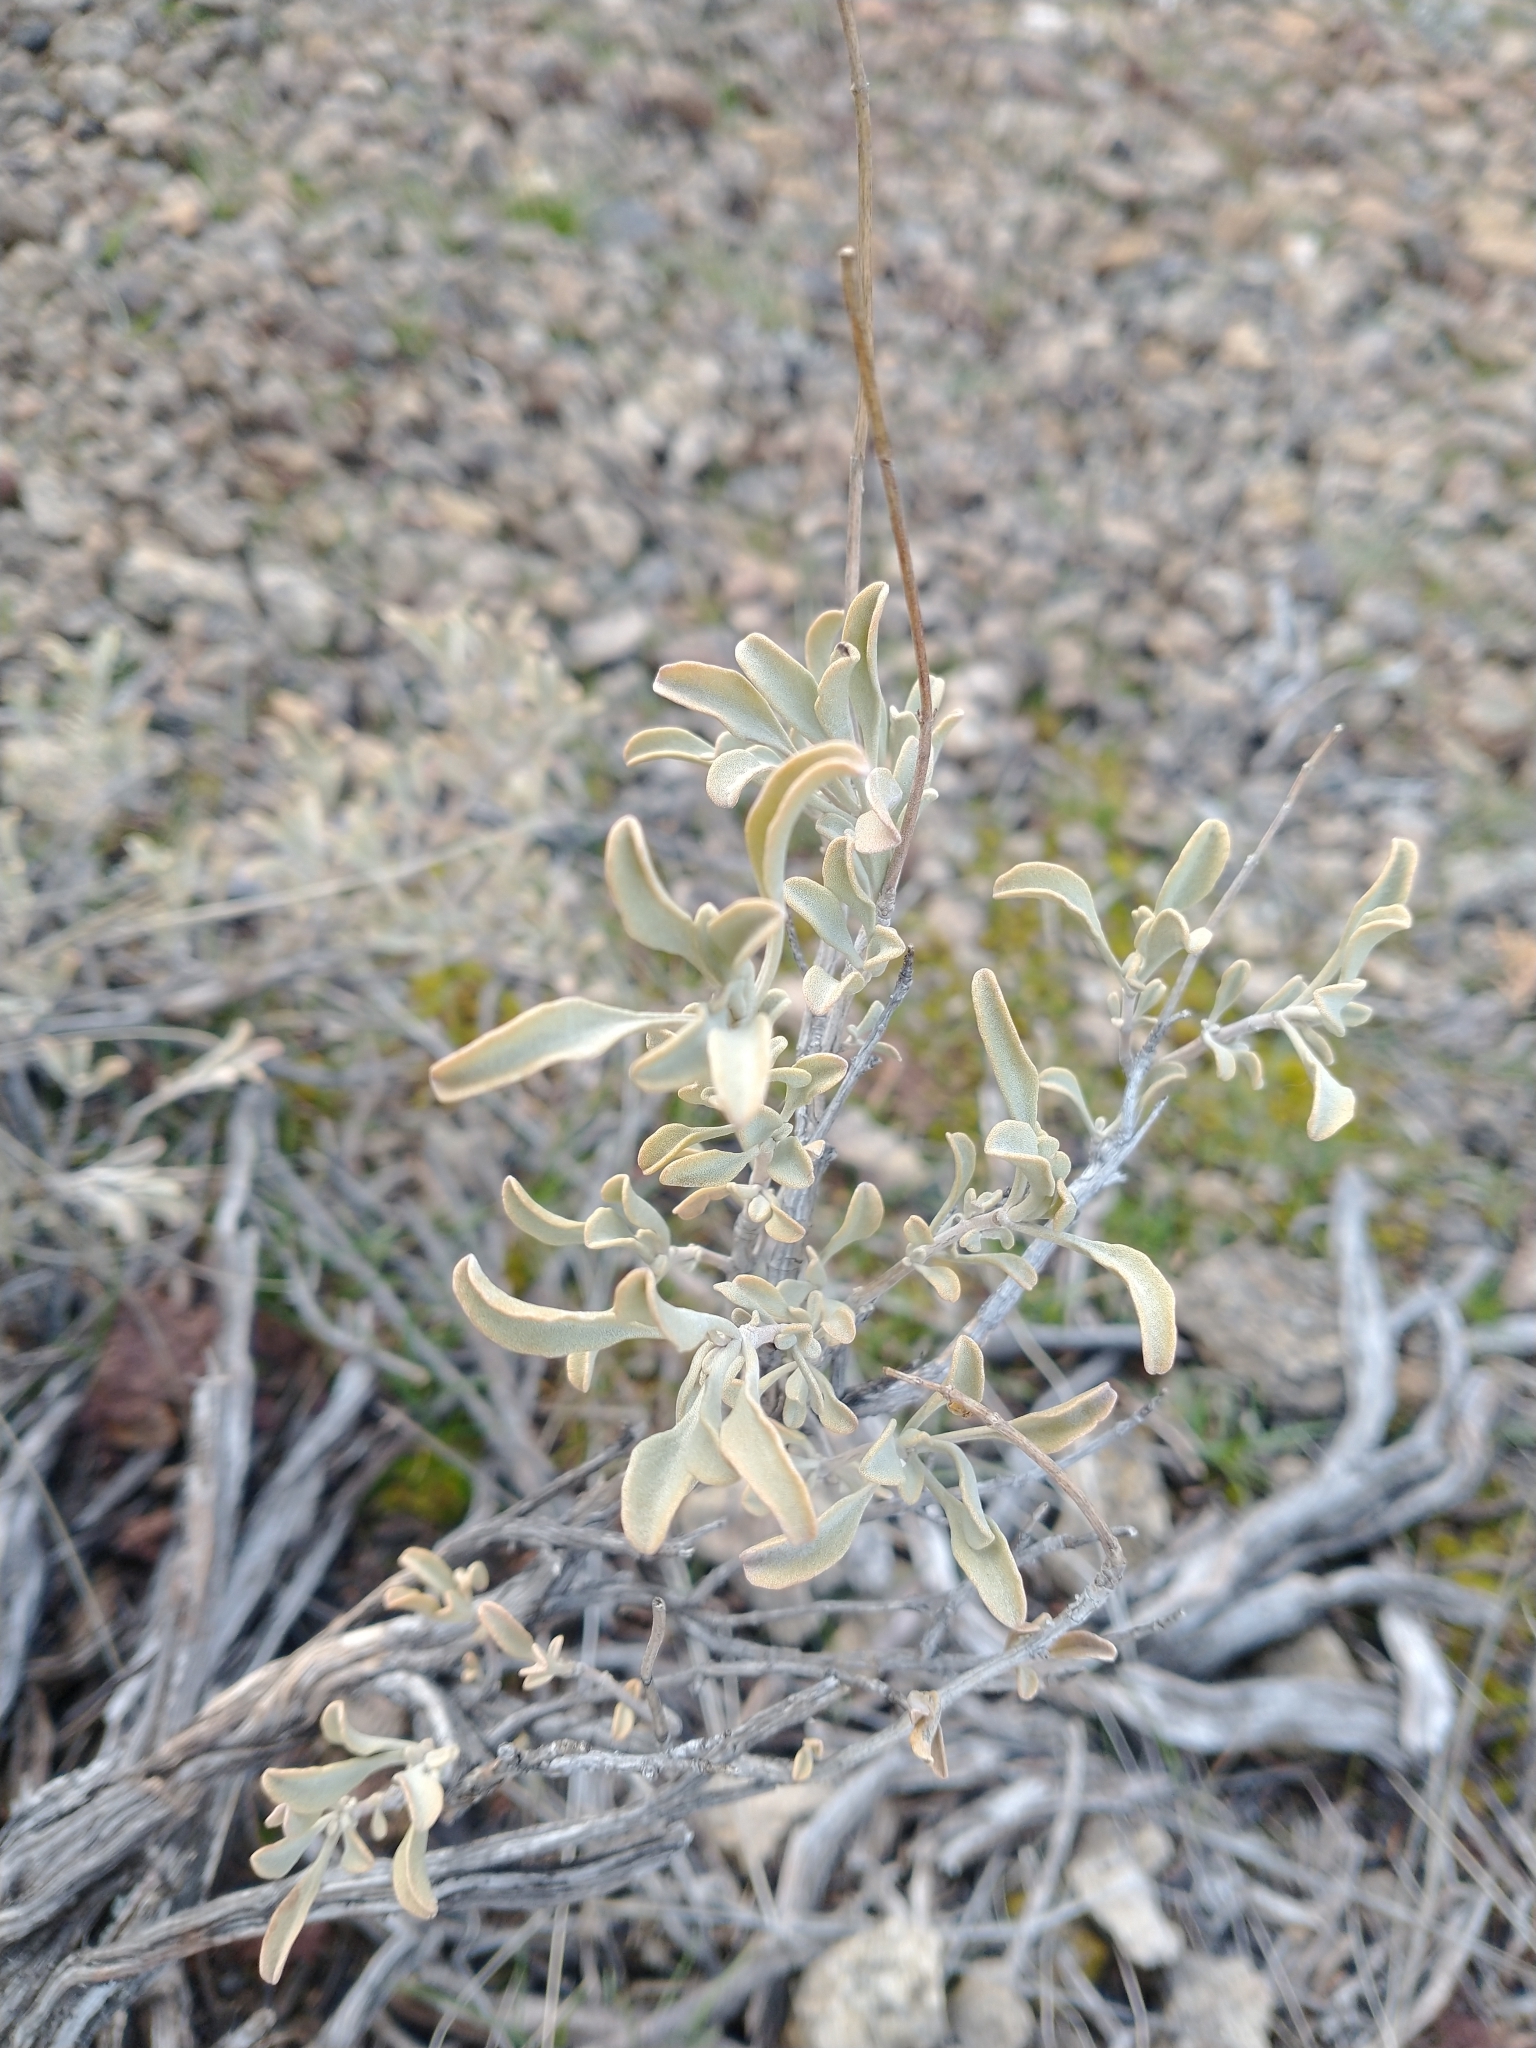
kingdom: Plantae
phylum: Tracheophyta
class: Magnoliopsida
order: Lamiales
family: Lamiaceae
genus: Salvia
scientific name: Salvia dorrii
